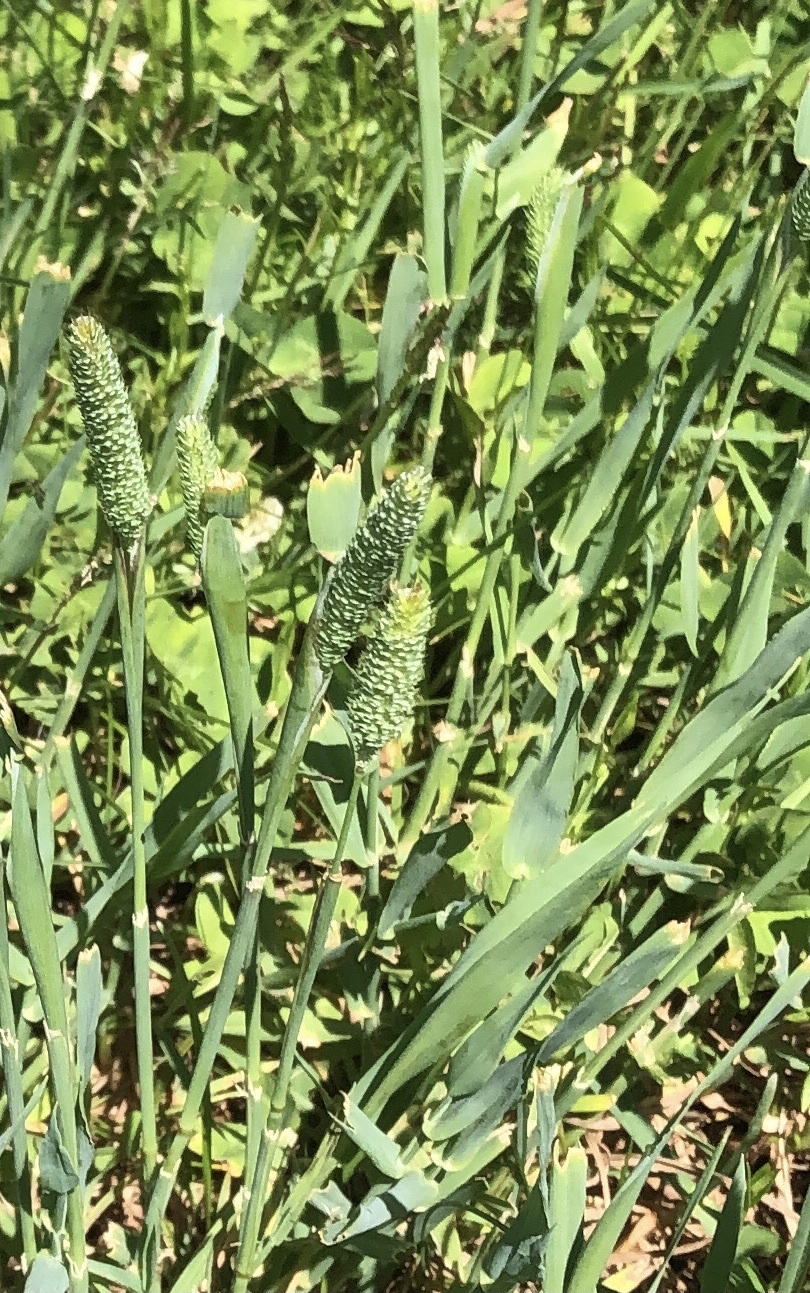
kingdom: Plantae
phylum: Tracheophyta
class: Liliopsida
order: Poales
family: Poaceae
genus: Phleum
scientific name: Phleum pratense
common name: Timothy grass
